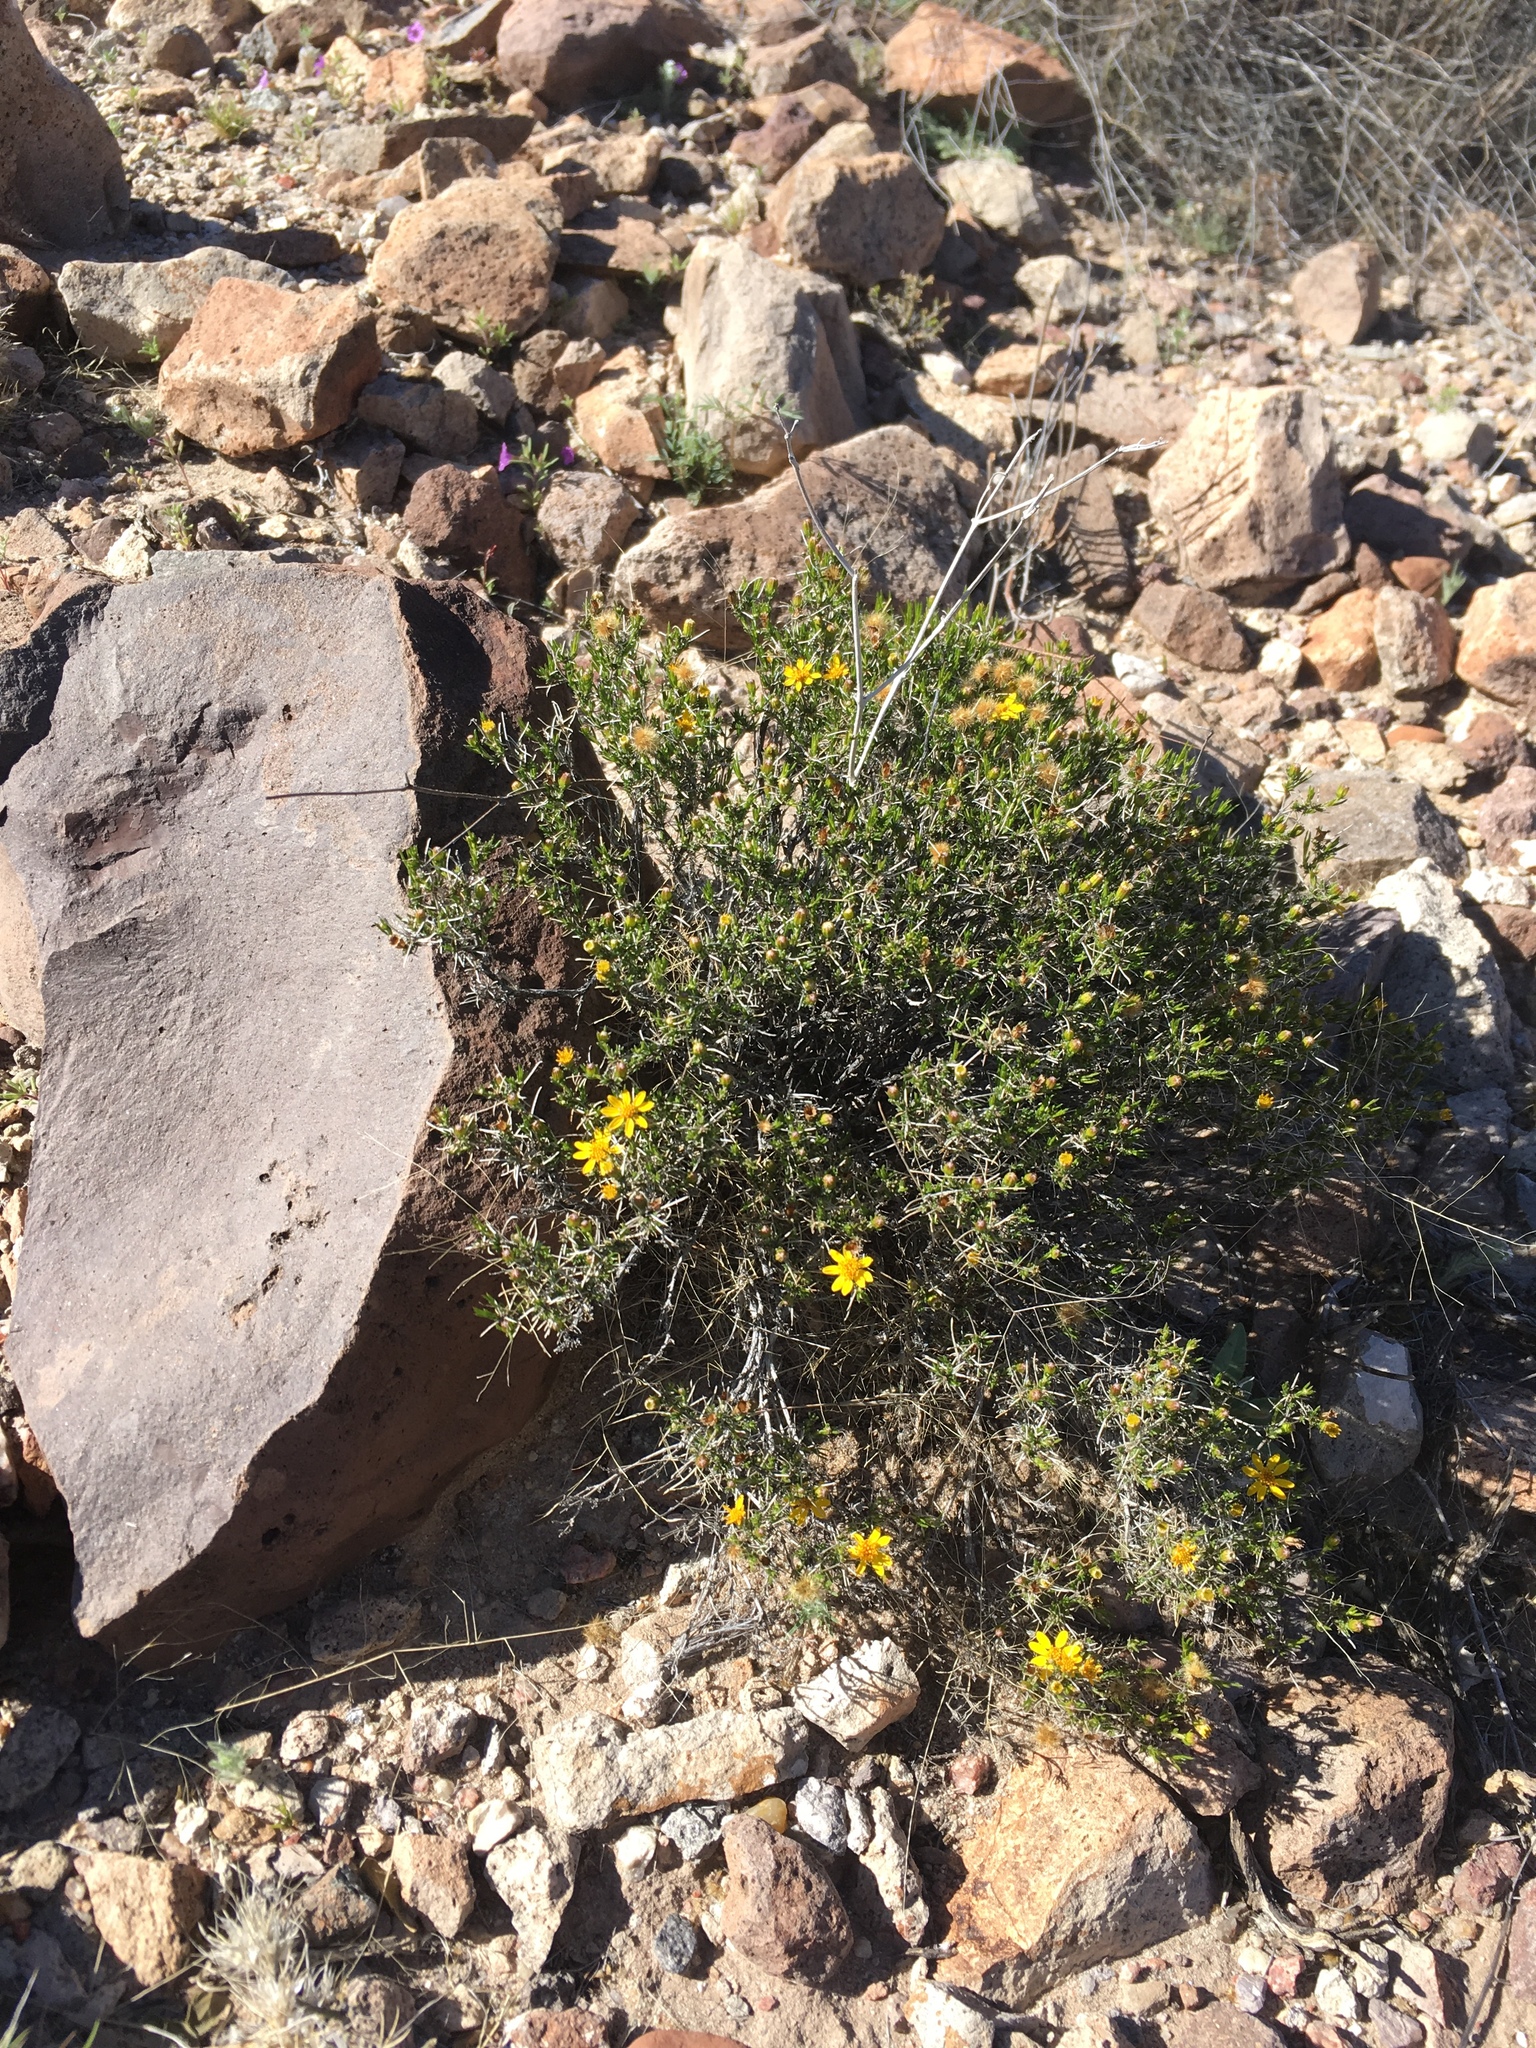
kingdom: Plantae
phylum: Tracheophyta
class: Magnoliopsida
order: Asterales
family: Asteraceae
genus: Thymophylla
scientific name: Thymophylla acerosa
